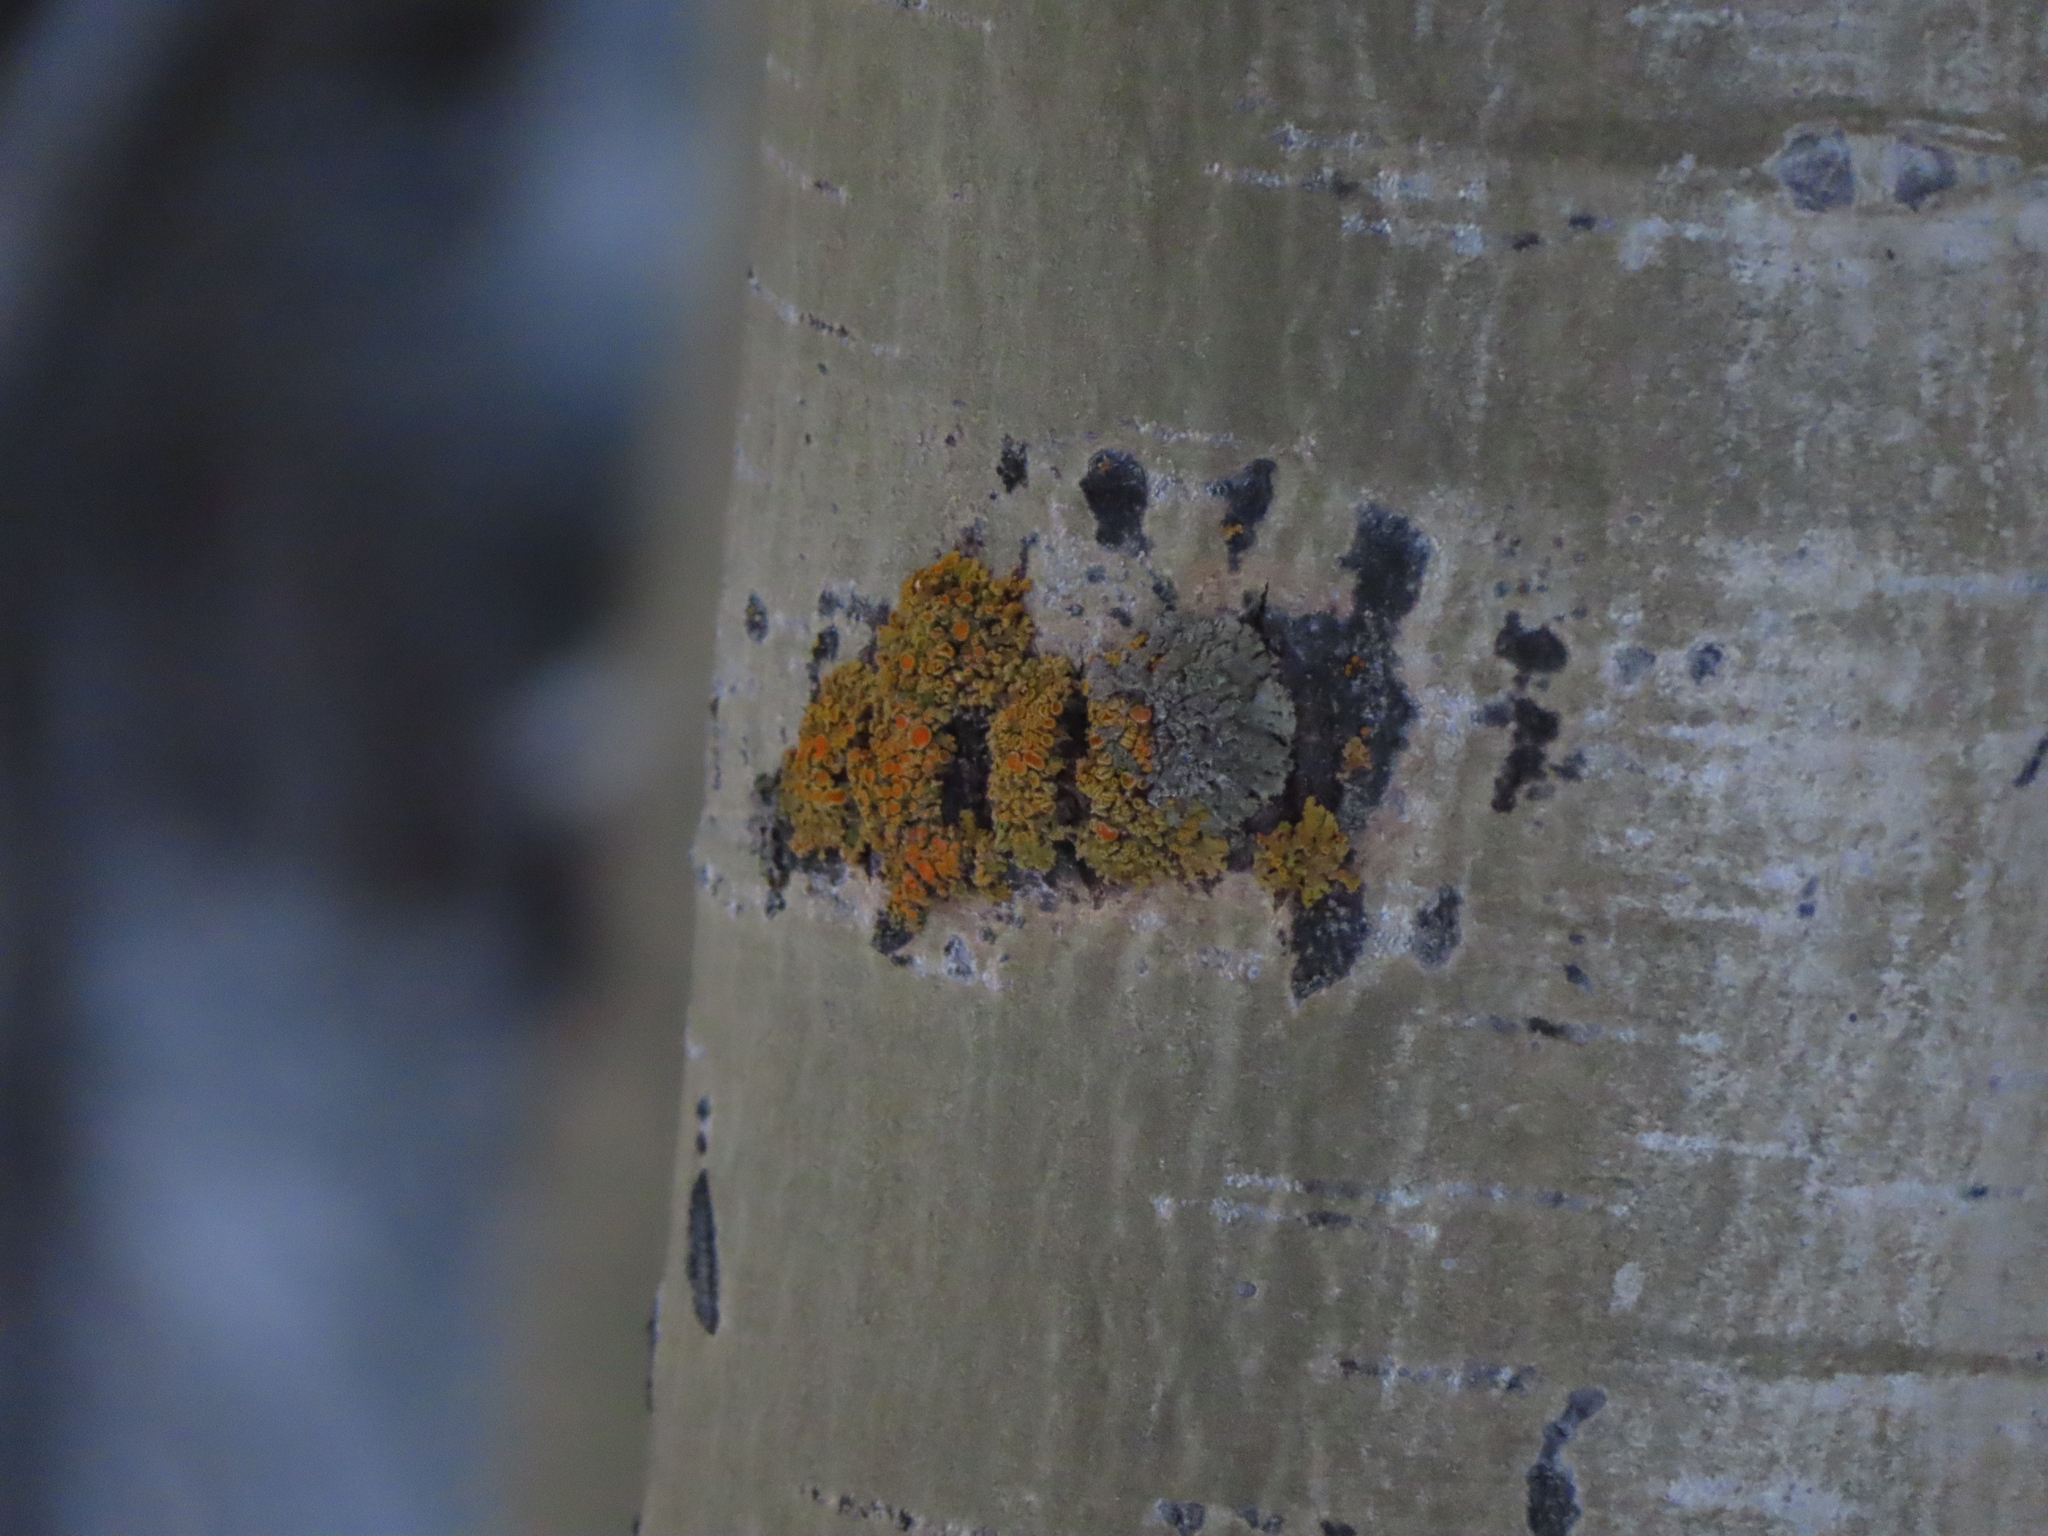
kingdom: Plantae
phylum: Tracheophyta
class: Magnoliopsida
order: Malpighiales
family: Salicaceae
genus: Populus
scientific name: Populus tremuloides
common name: Quaking aspen
